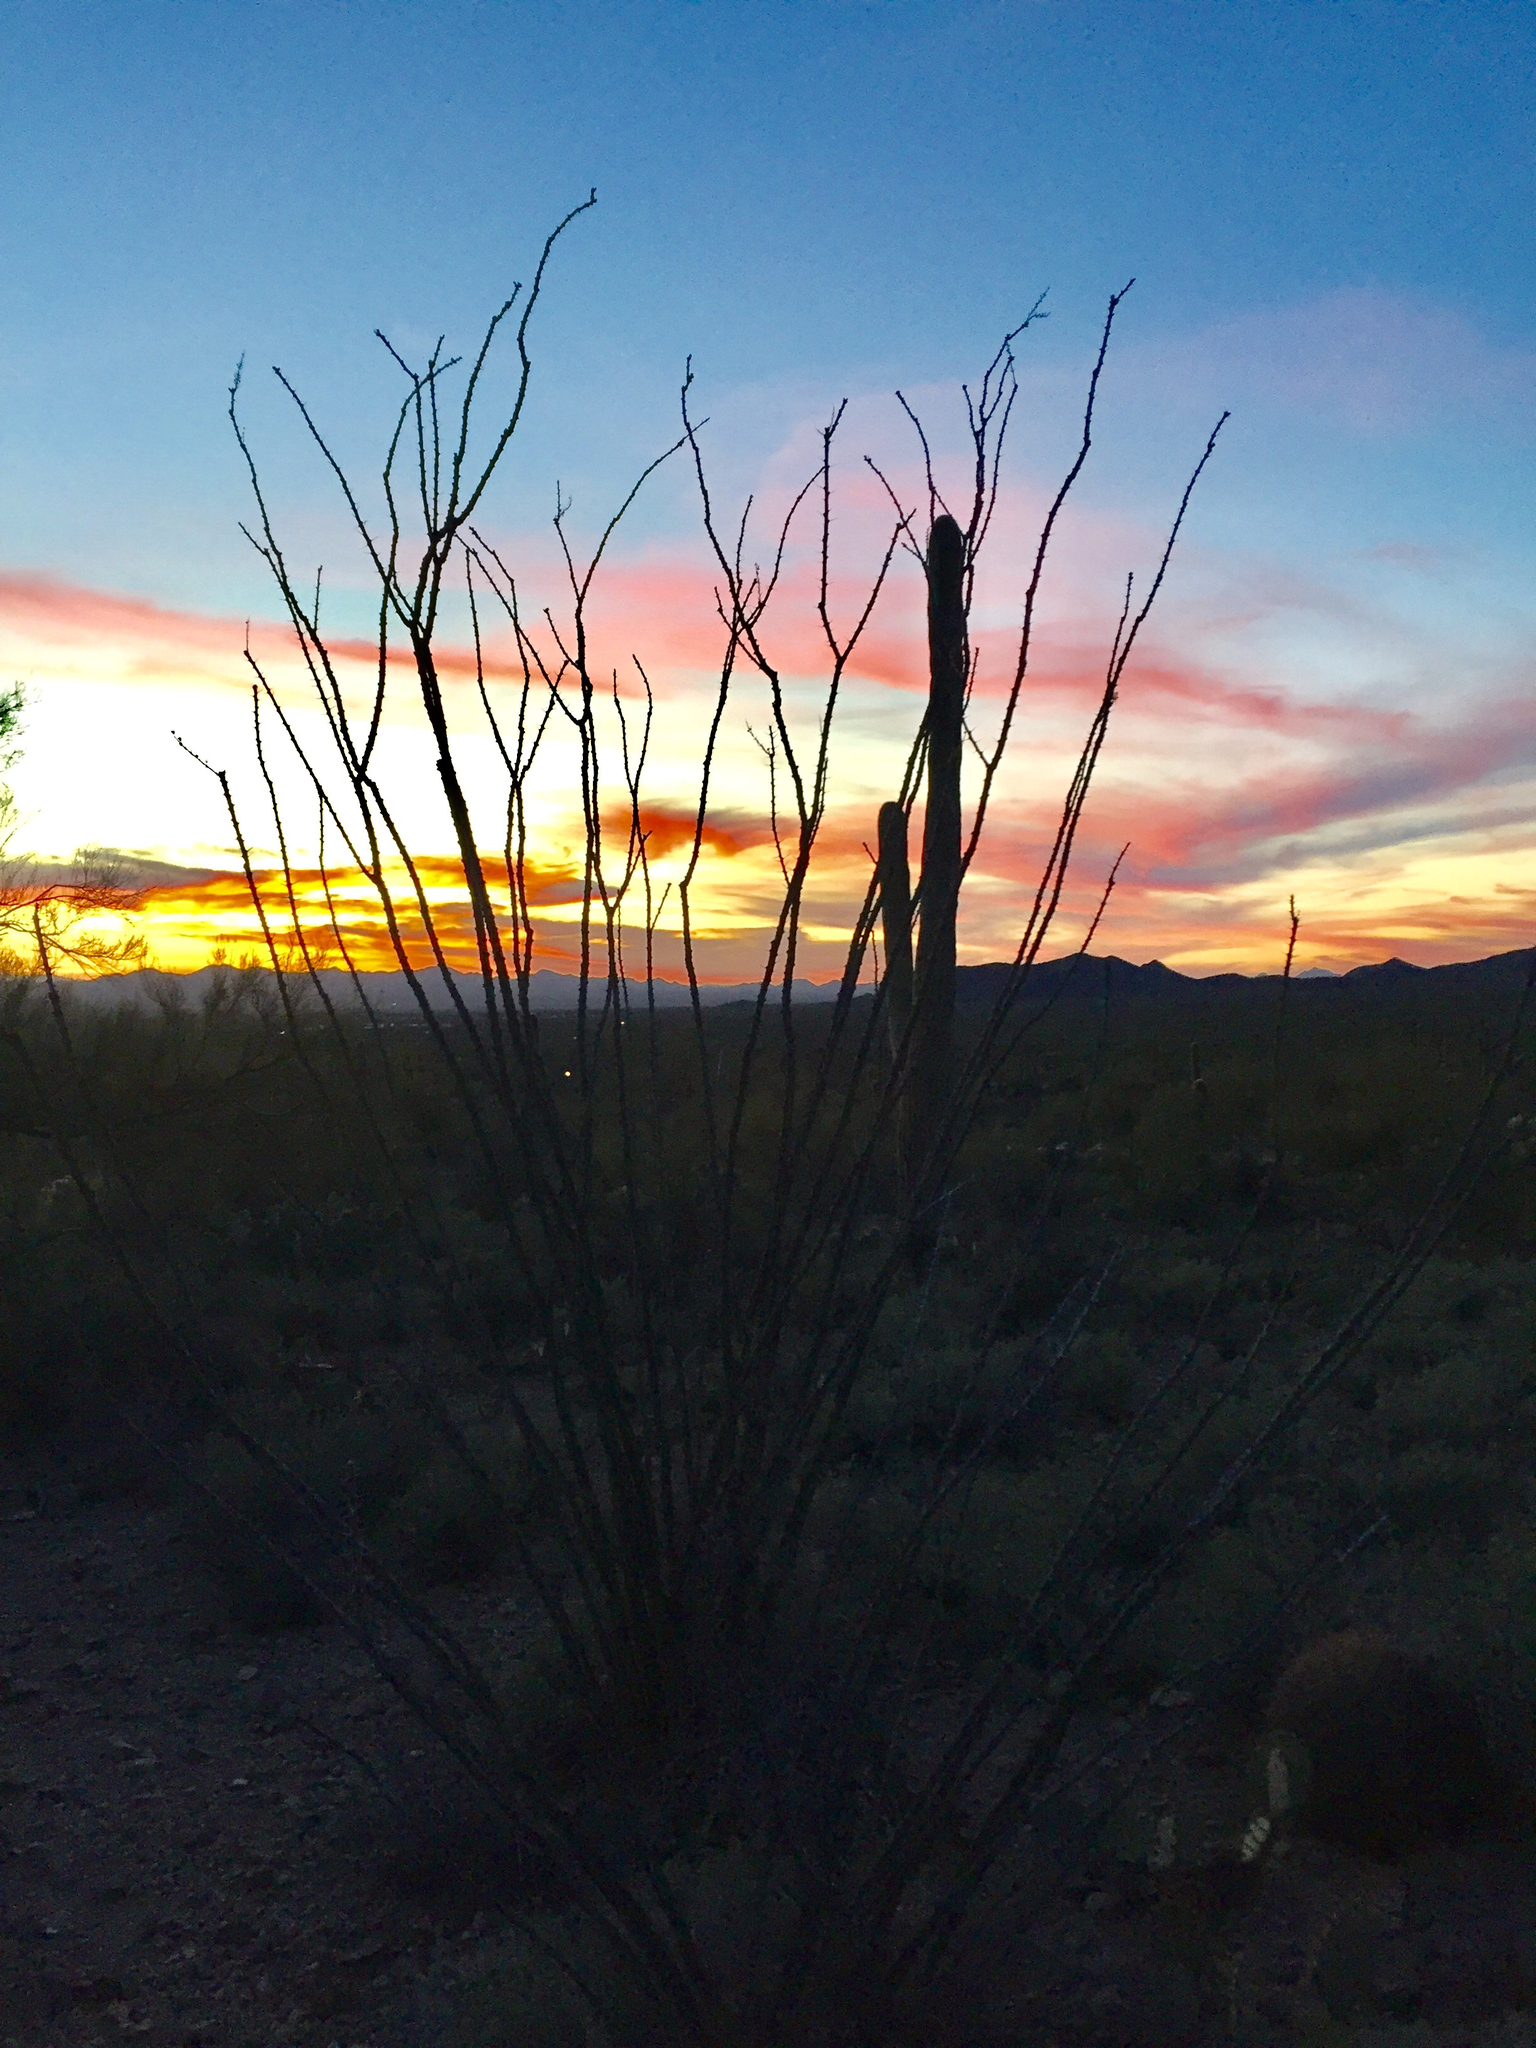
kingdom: Plantae
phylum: Tracheophyta
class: Magnoliopsida
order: Ericales
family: Fouquieriaceae
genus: Fouquieria
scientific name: Fouquieria splendens
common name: Vine-cactus
